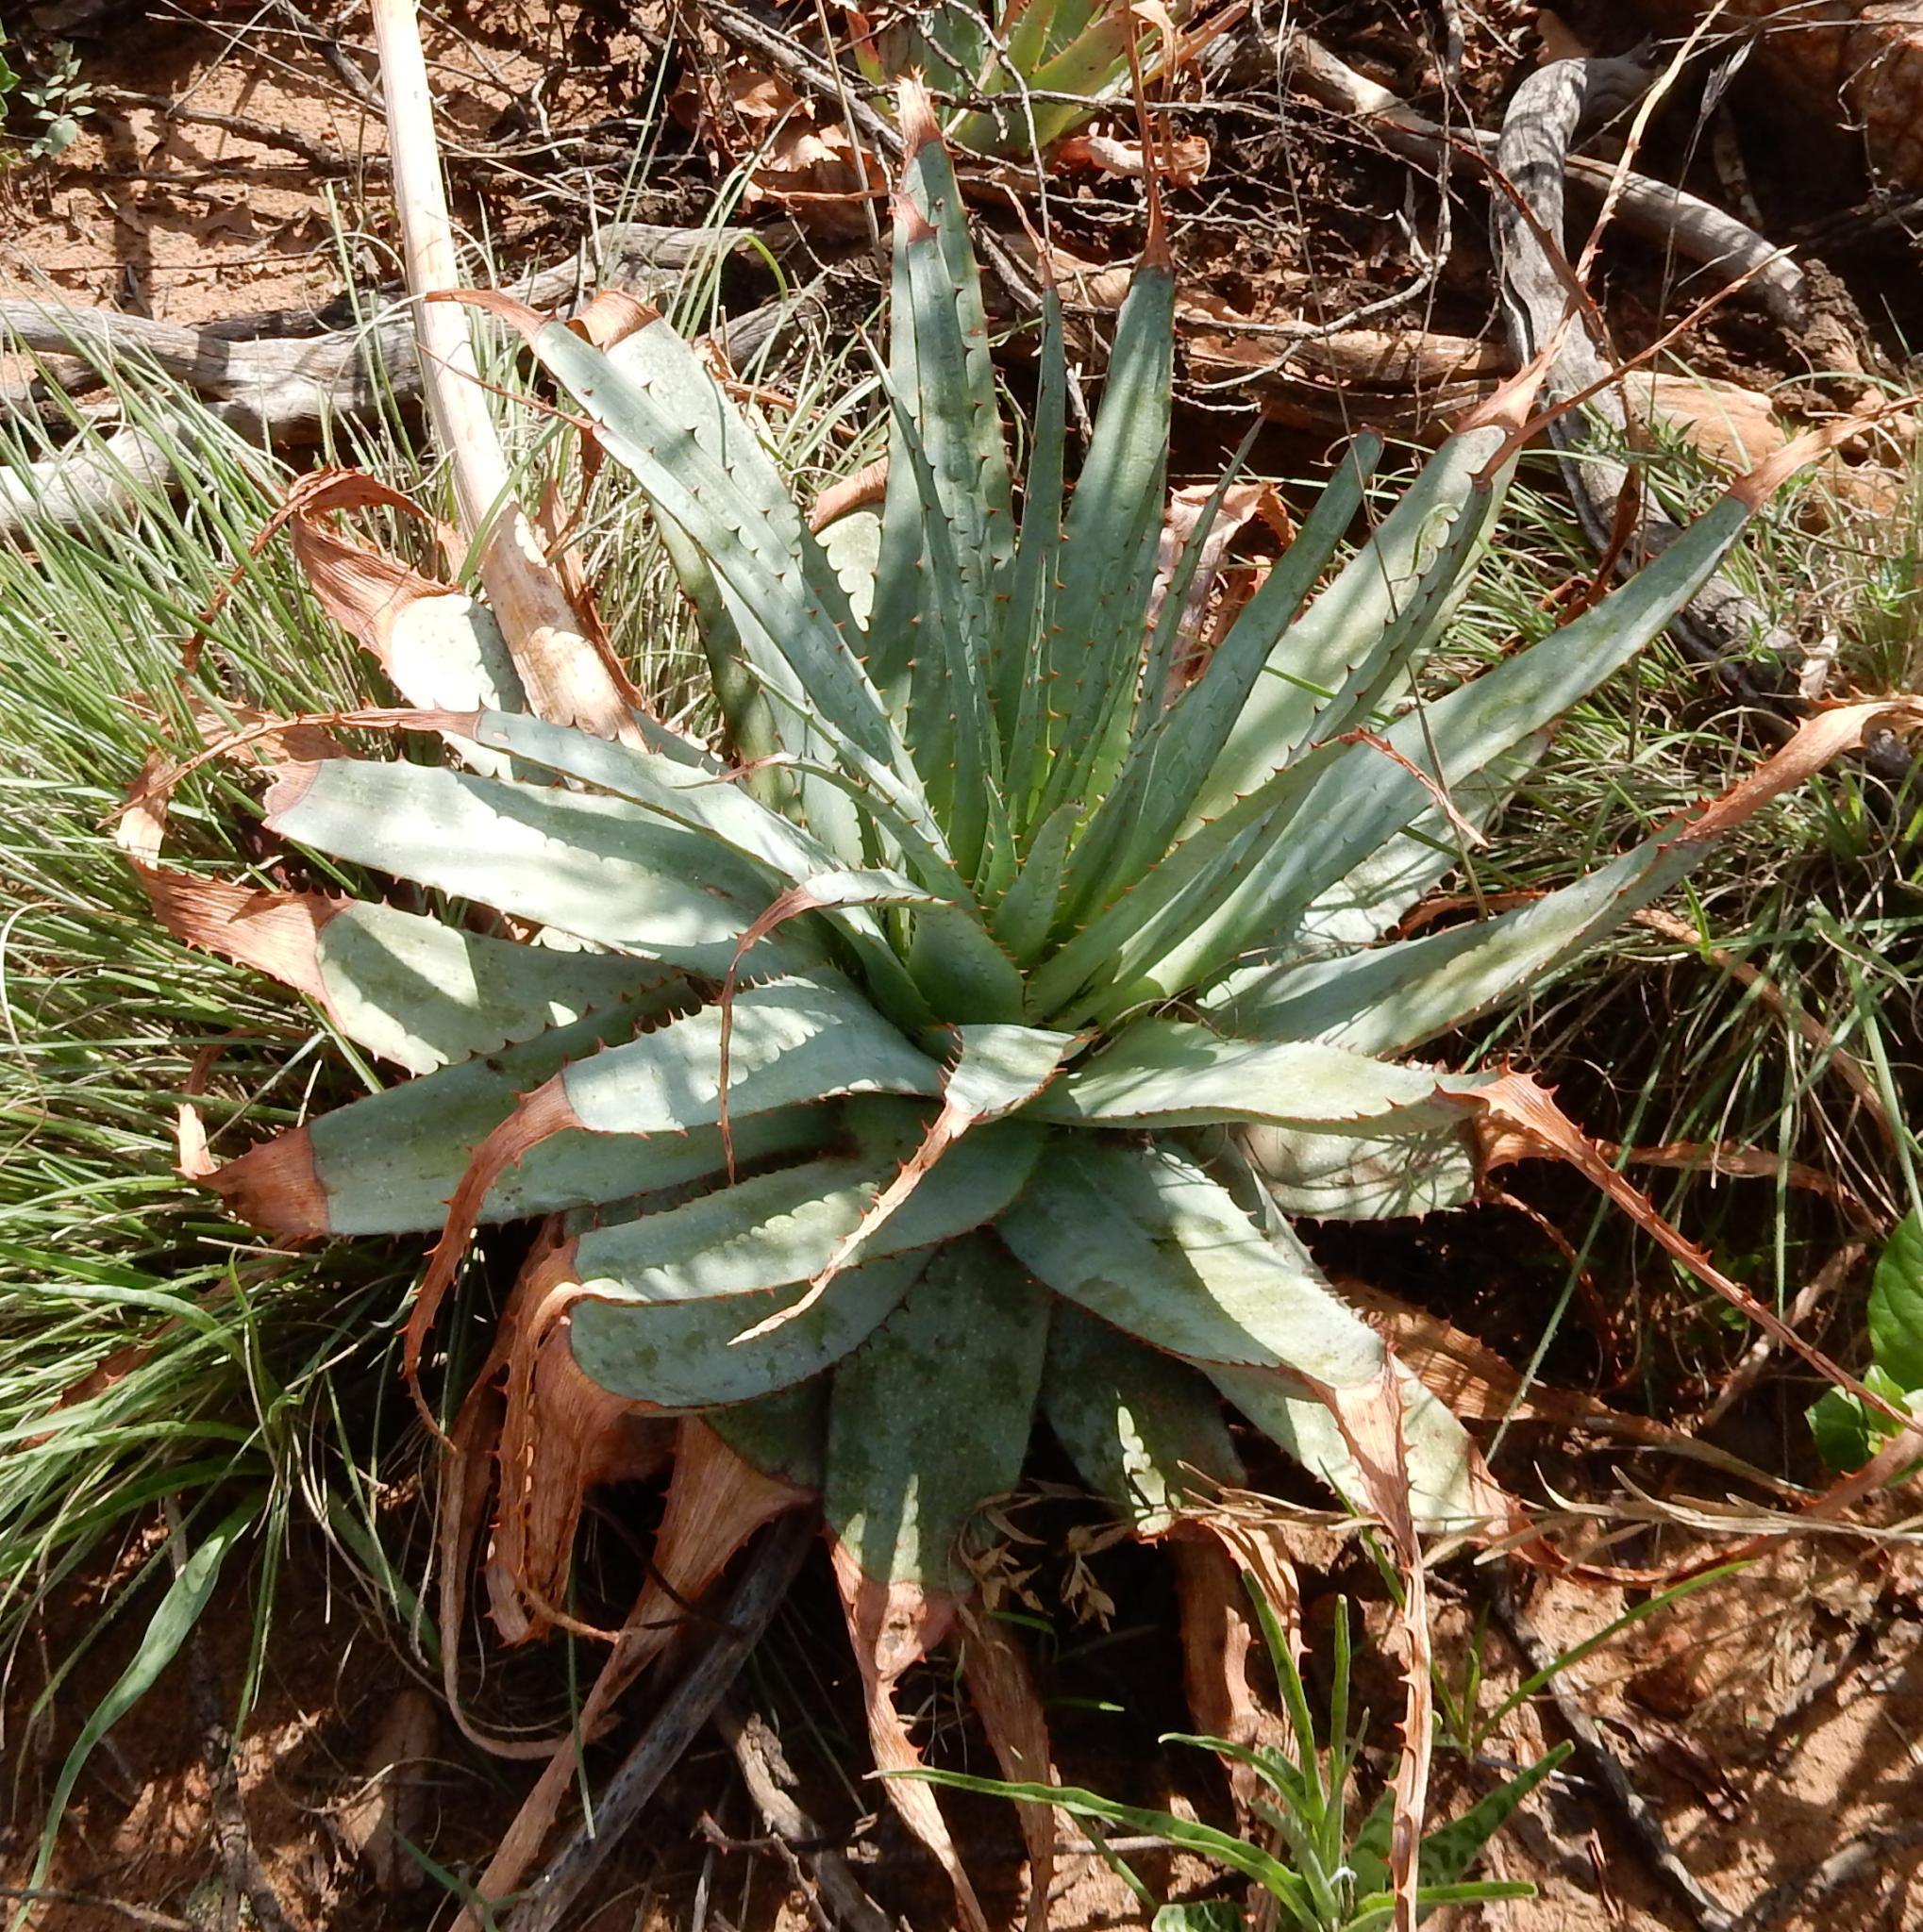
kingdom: Plantae
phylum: Tracheophyta
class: Liliopsida
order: Asparagales
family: Asphodelaceae
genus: Aloe
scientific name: Aloe pretoriensis
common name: Pretoria aloe
